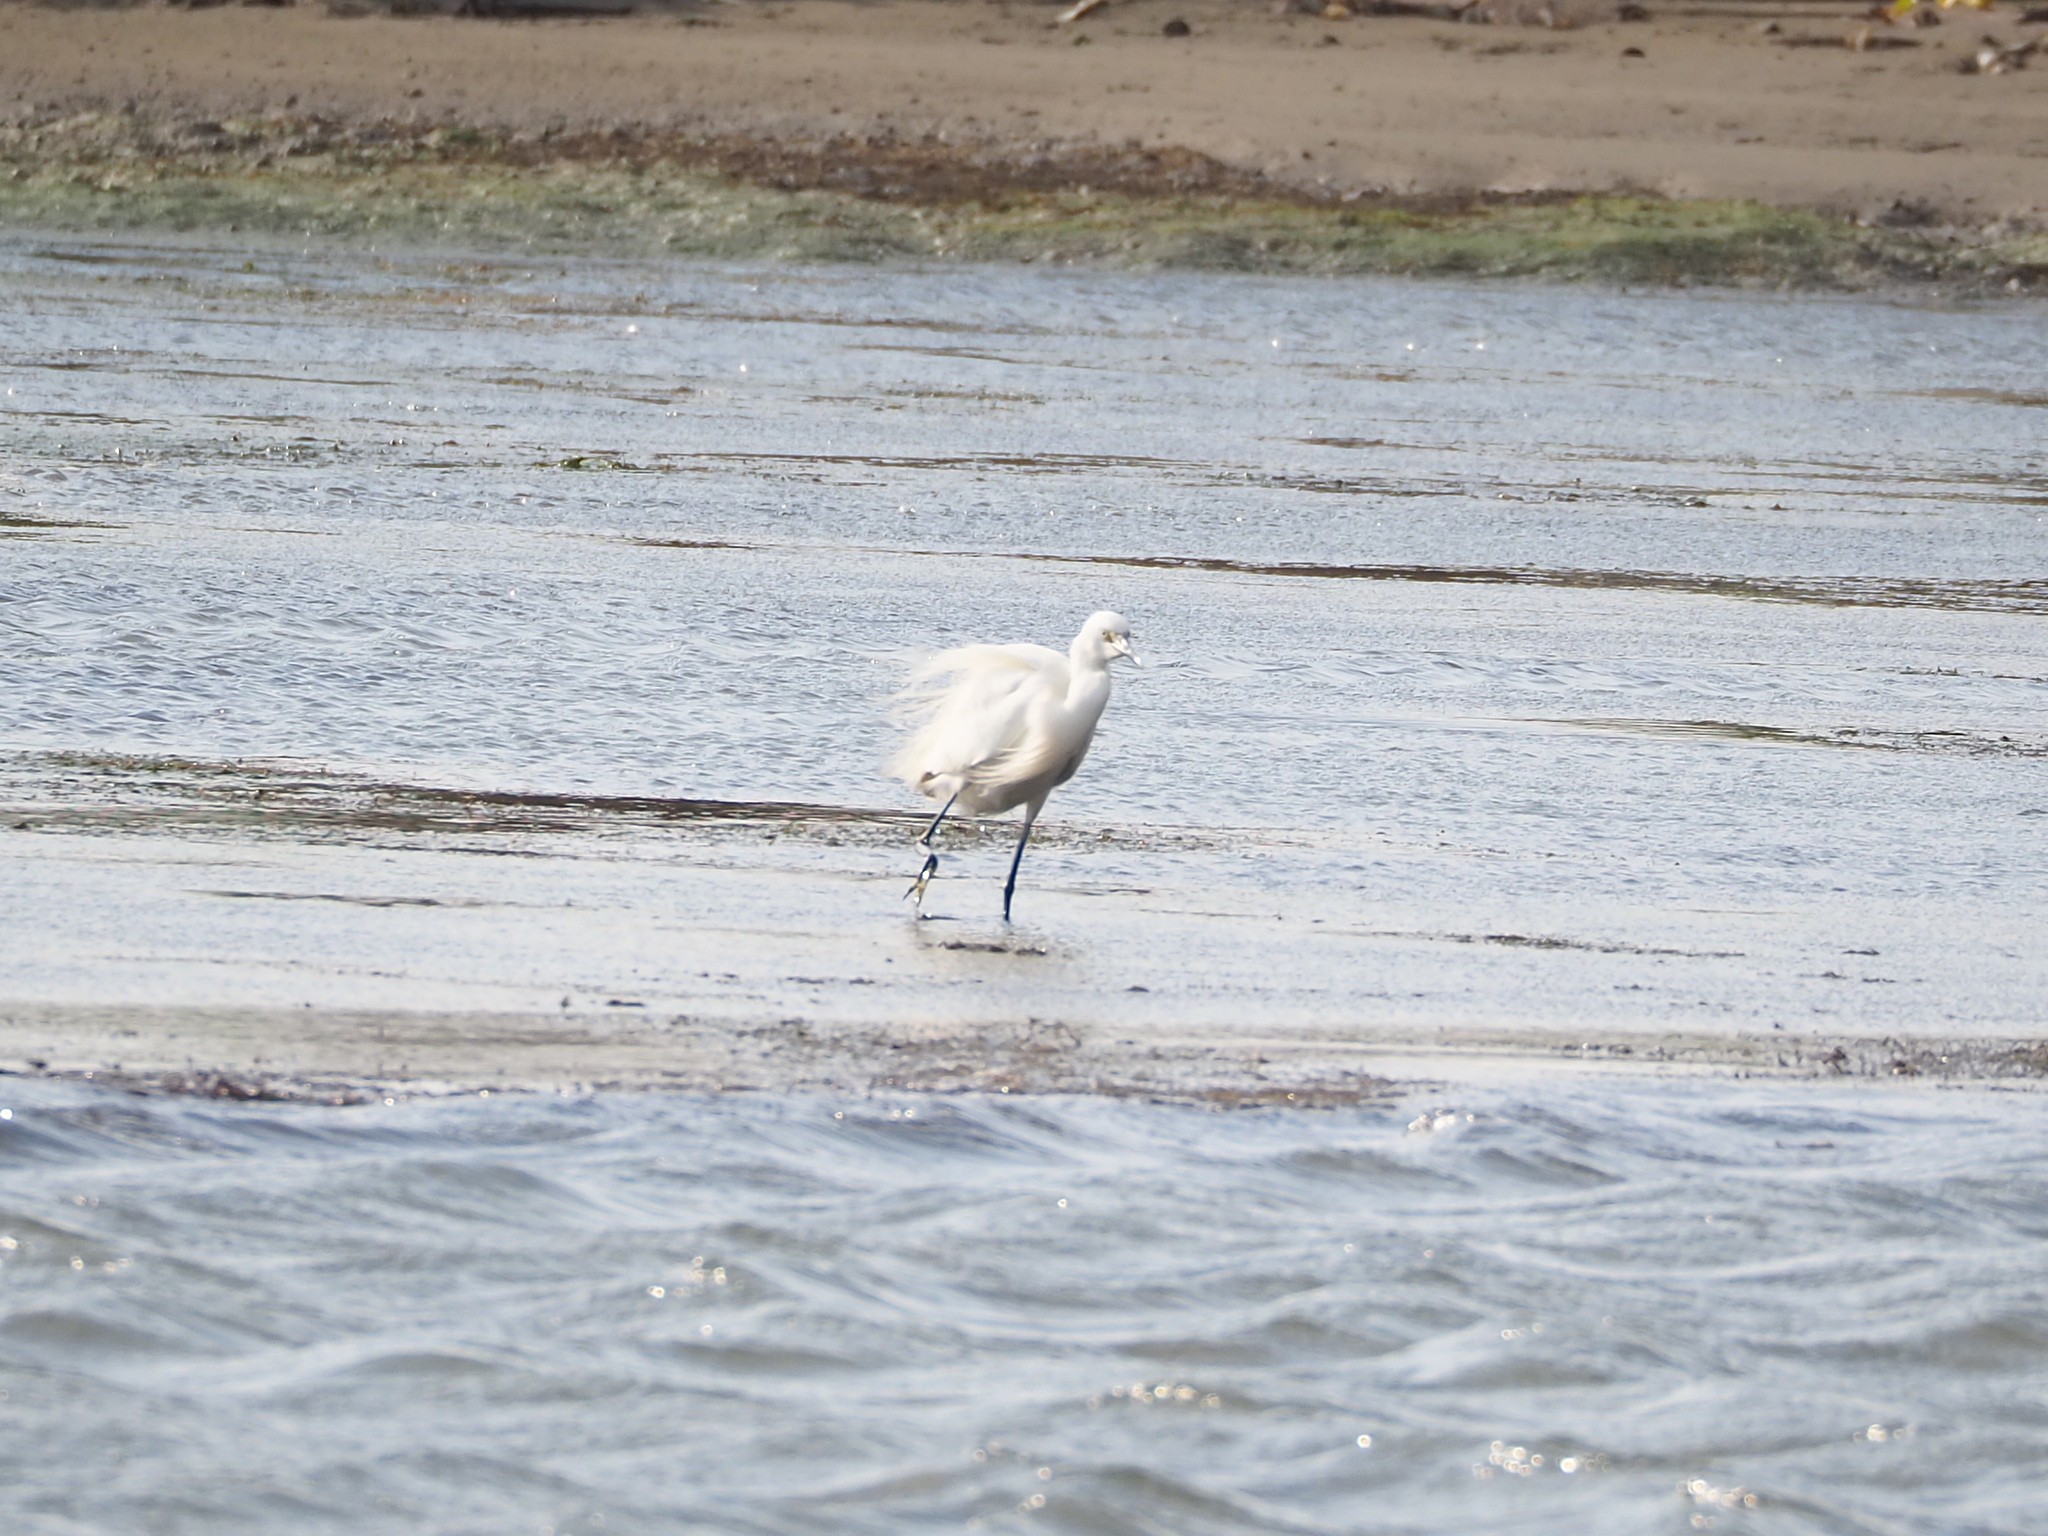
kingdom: Animalia
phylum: Chordata
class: Aves
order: Pelecaniformes
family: Ardeidae
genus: Egretta
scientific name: Egretta garzetta
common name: Little egret
